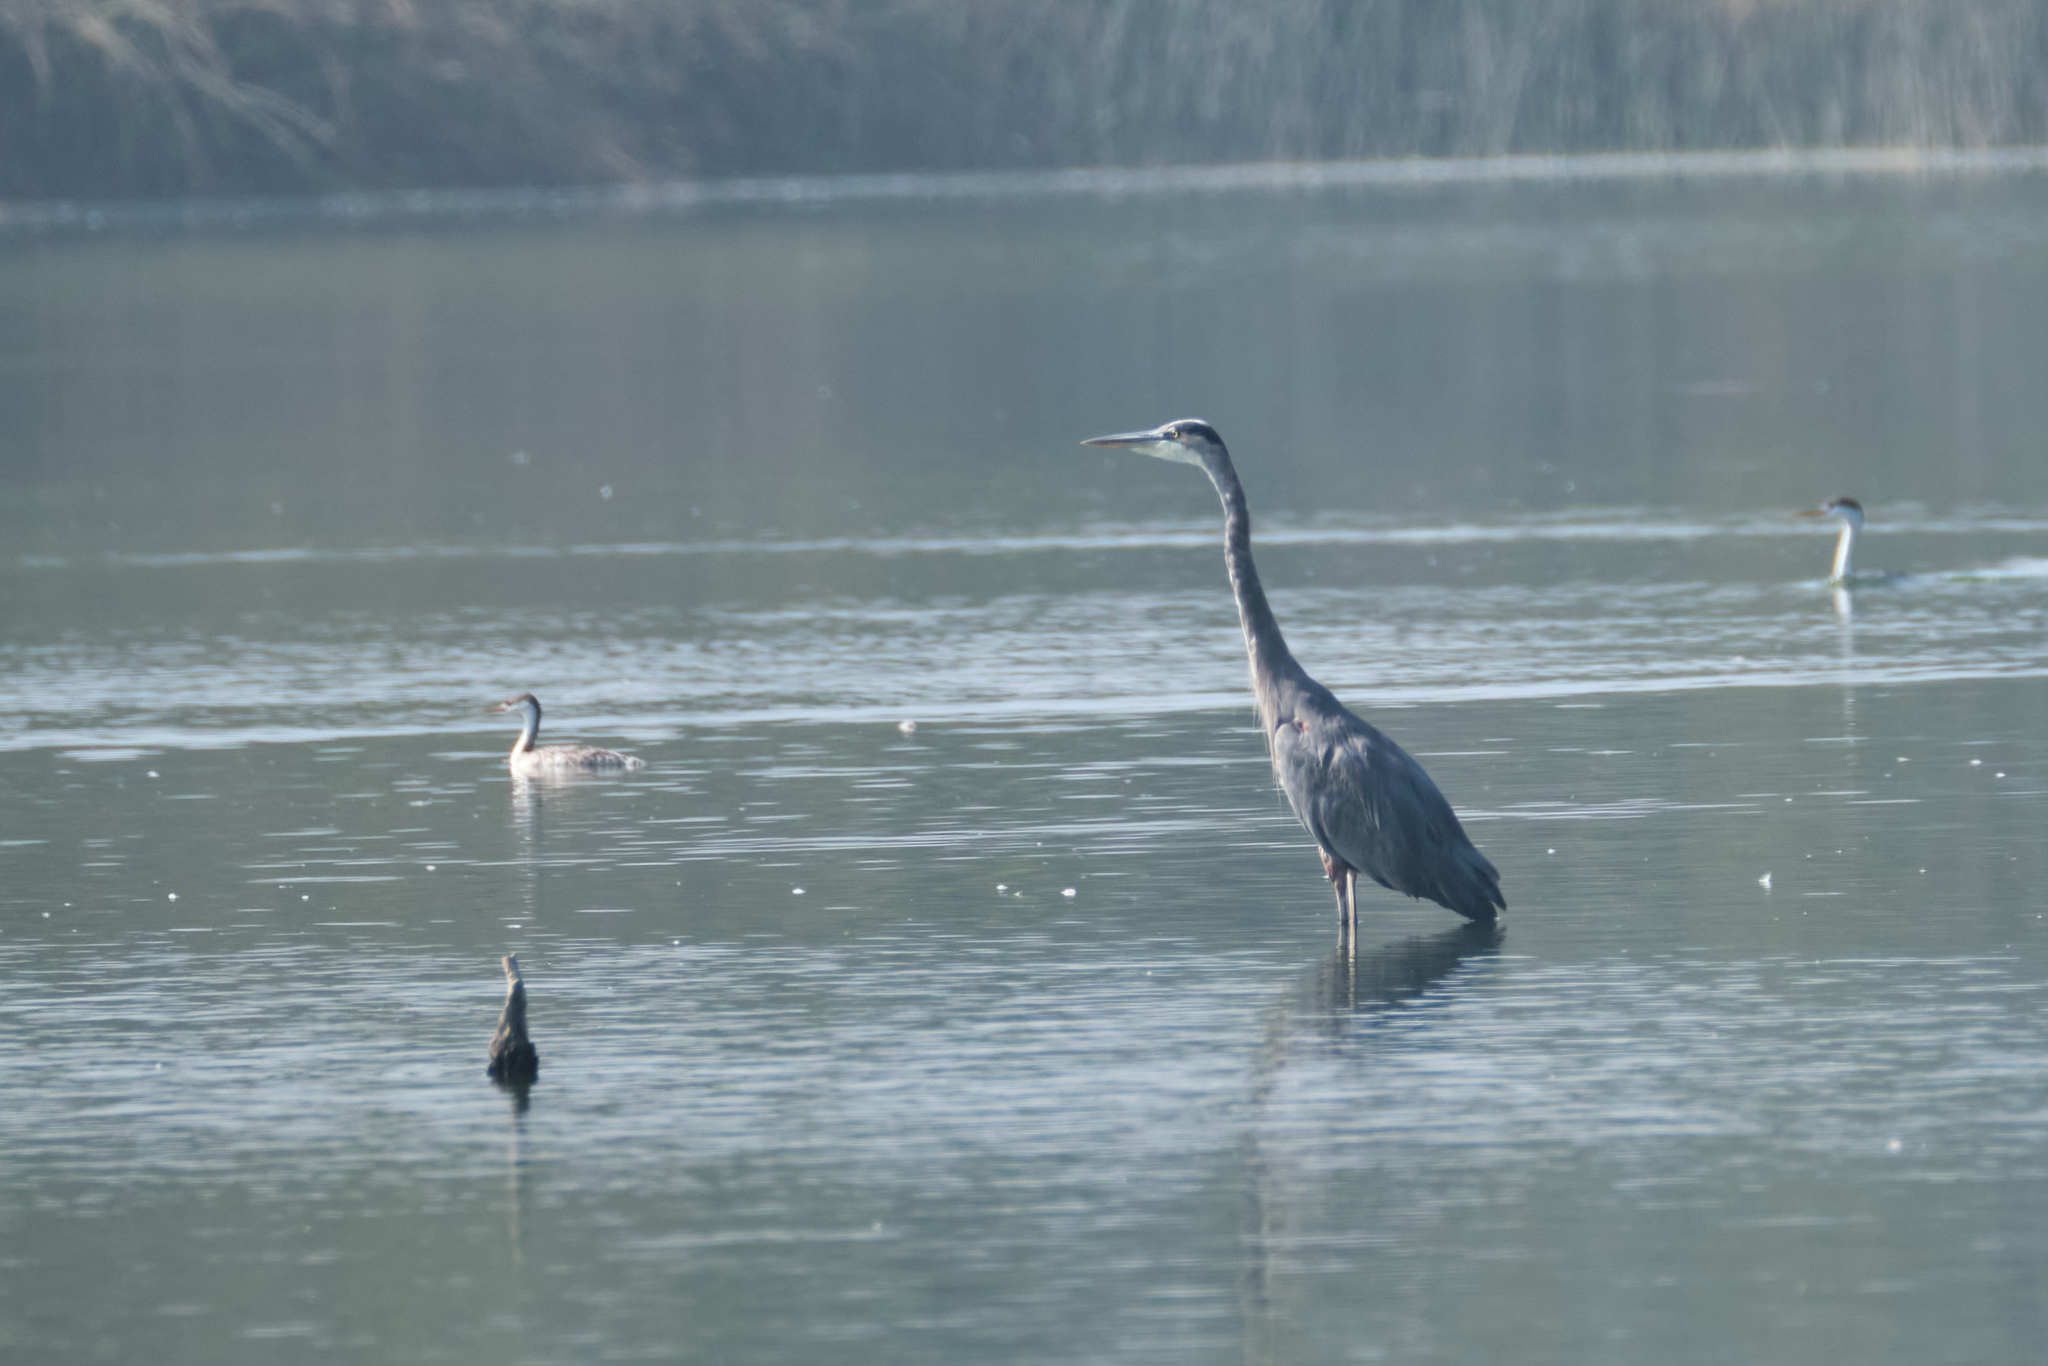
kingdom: Animalia
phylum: Chordata
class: Aves
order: Pelecaniformes
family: Ardeidae
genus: Ardea
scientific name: Ardea herodias
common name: Great blue heron
